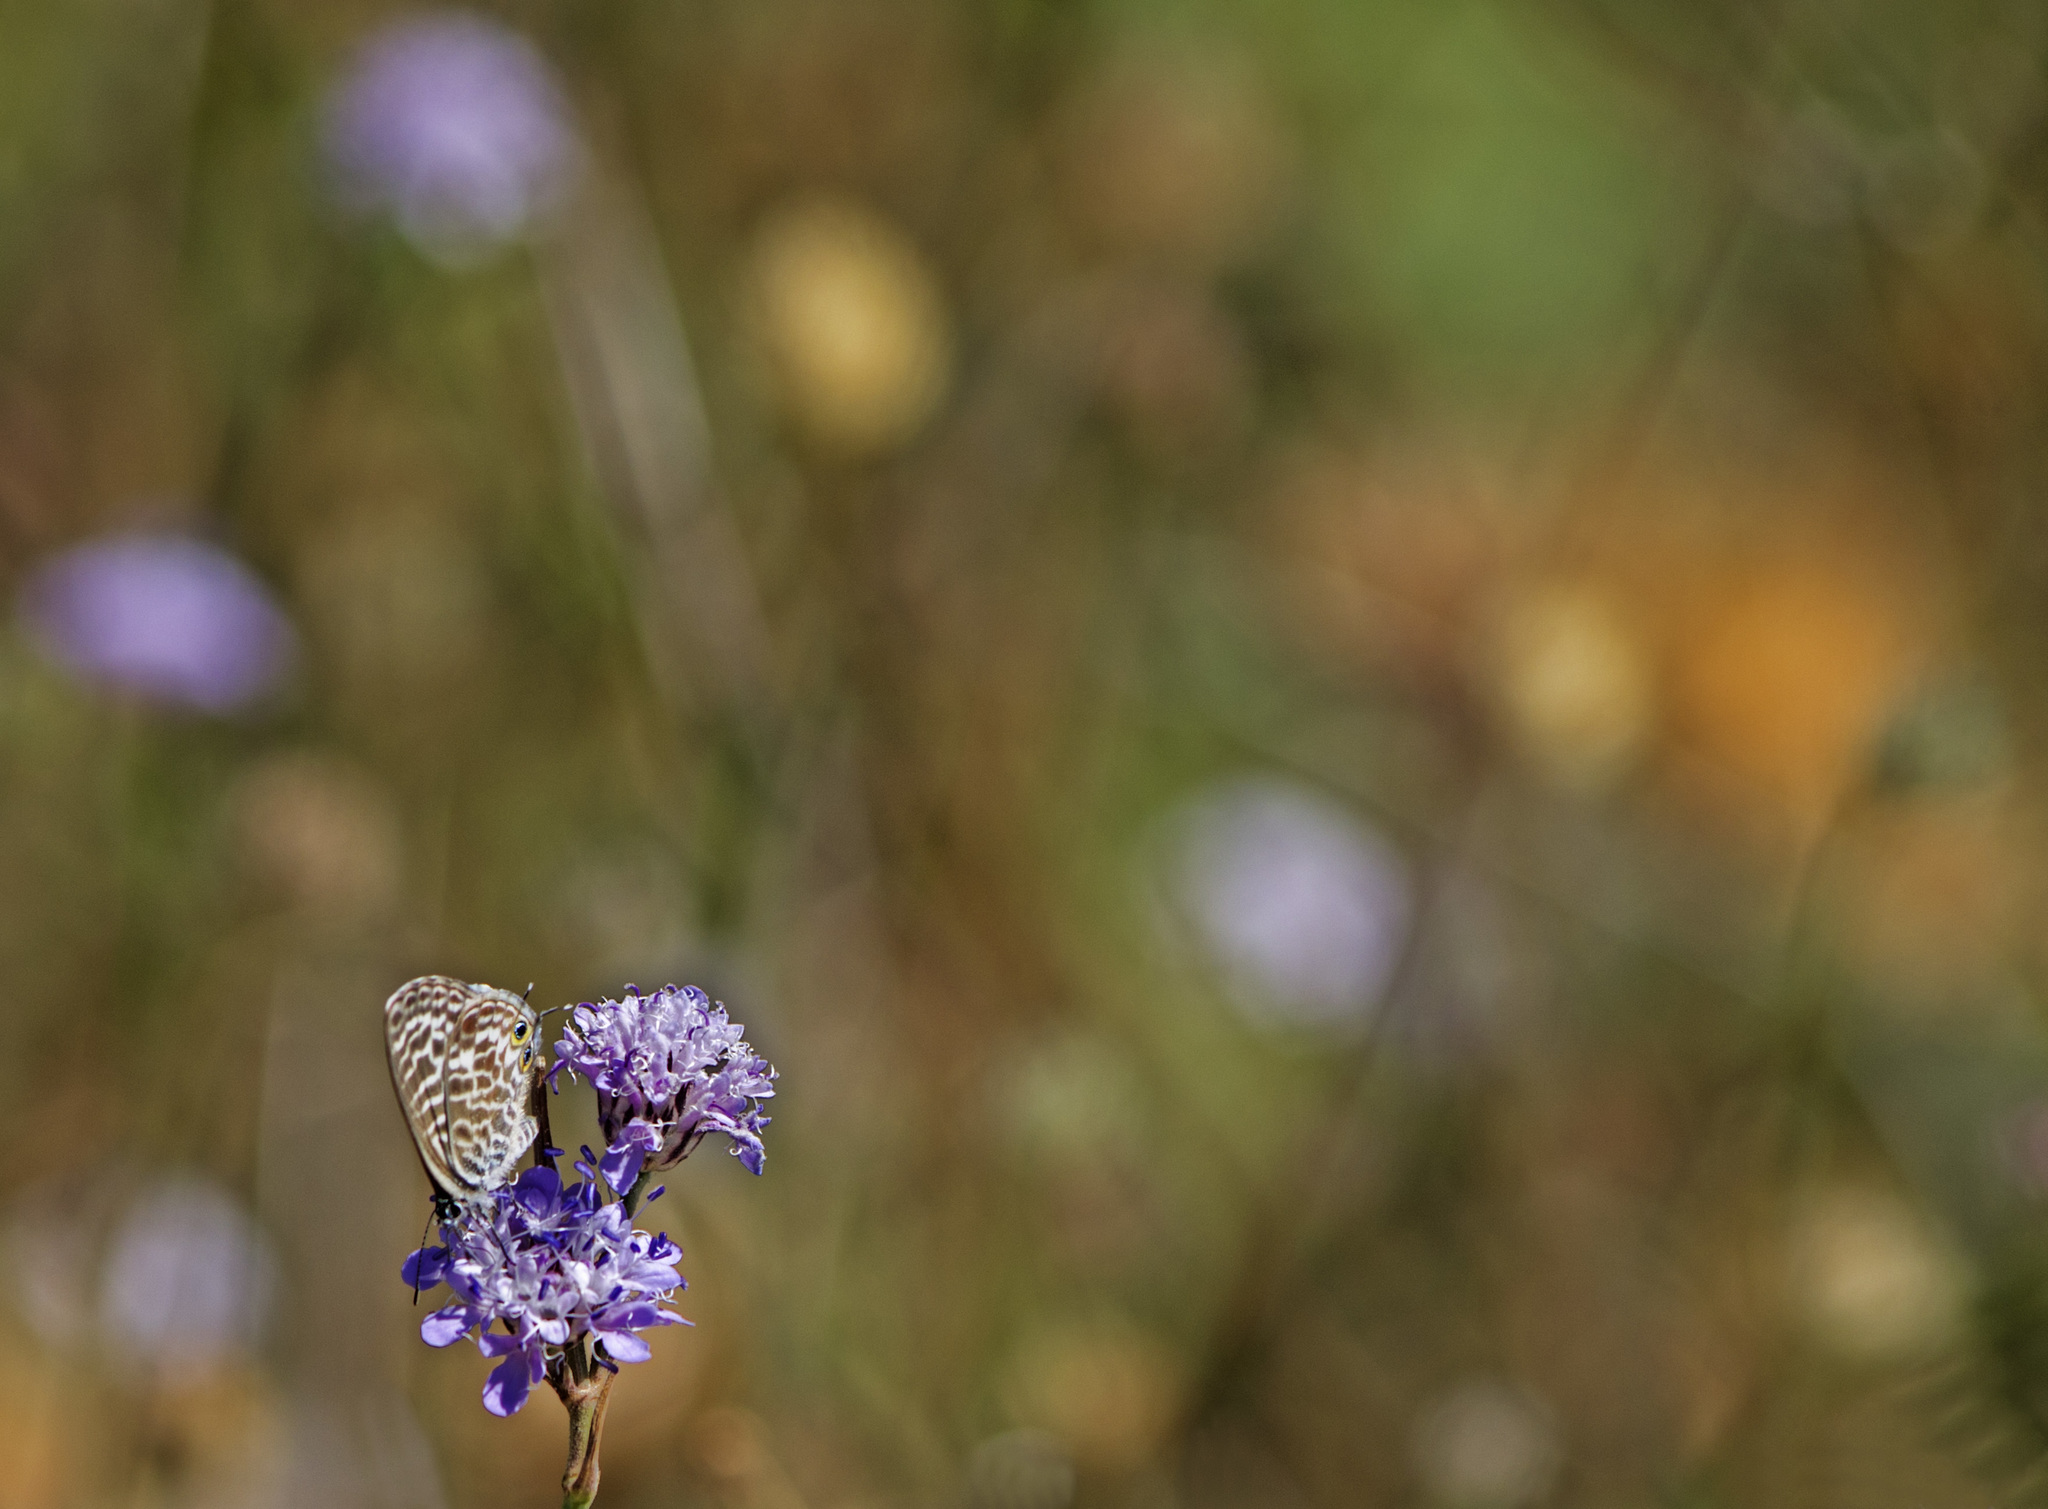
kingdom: Animalia
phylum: Arthropoda
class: Insecta
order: Lepidoptera
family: Lycaenidae
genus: Leptotes
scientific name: Leptotes pirithous
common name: Lang's short-tailed blue
